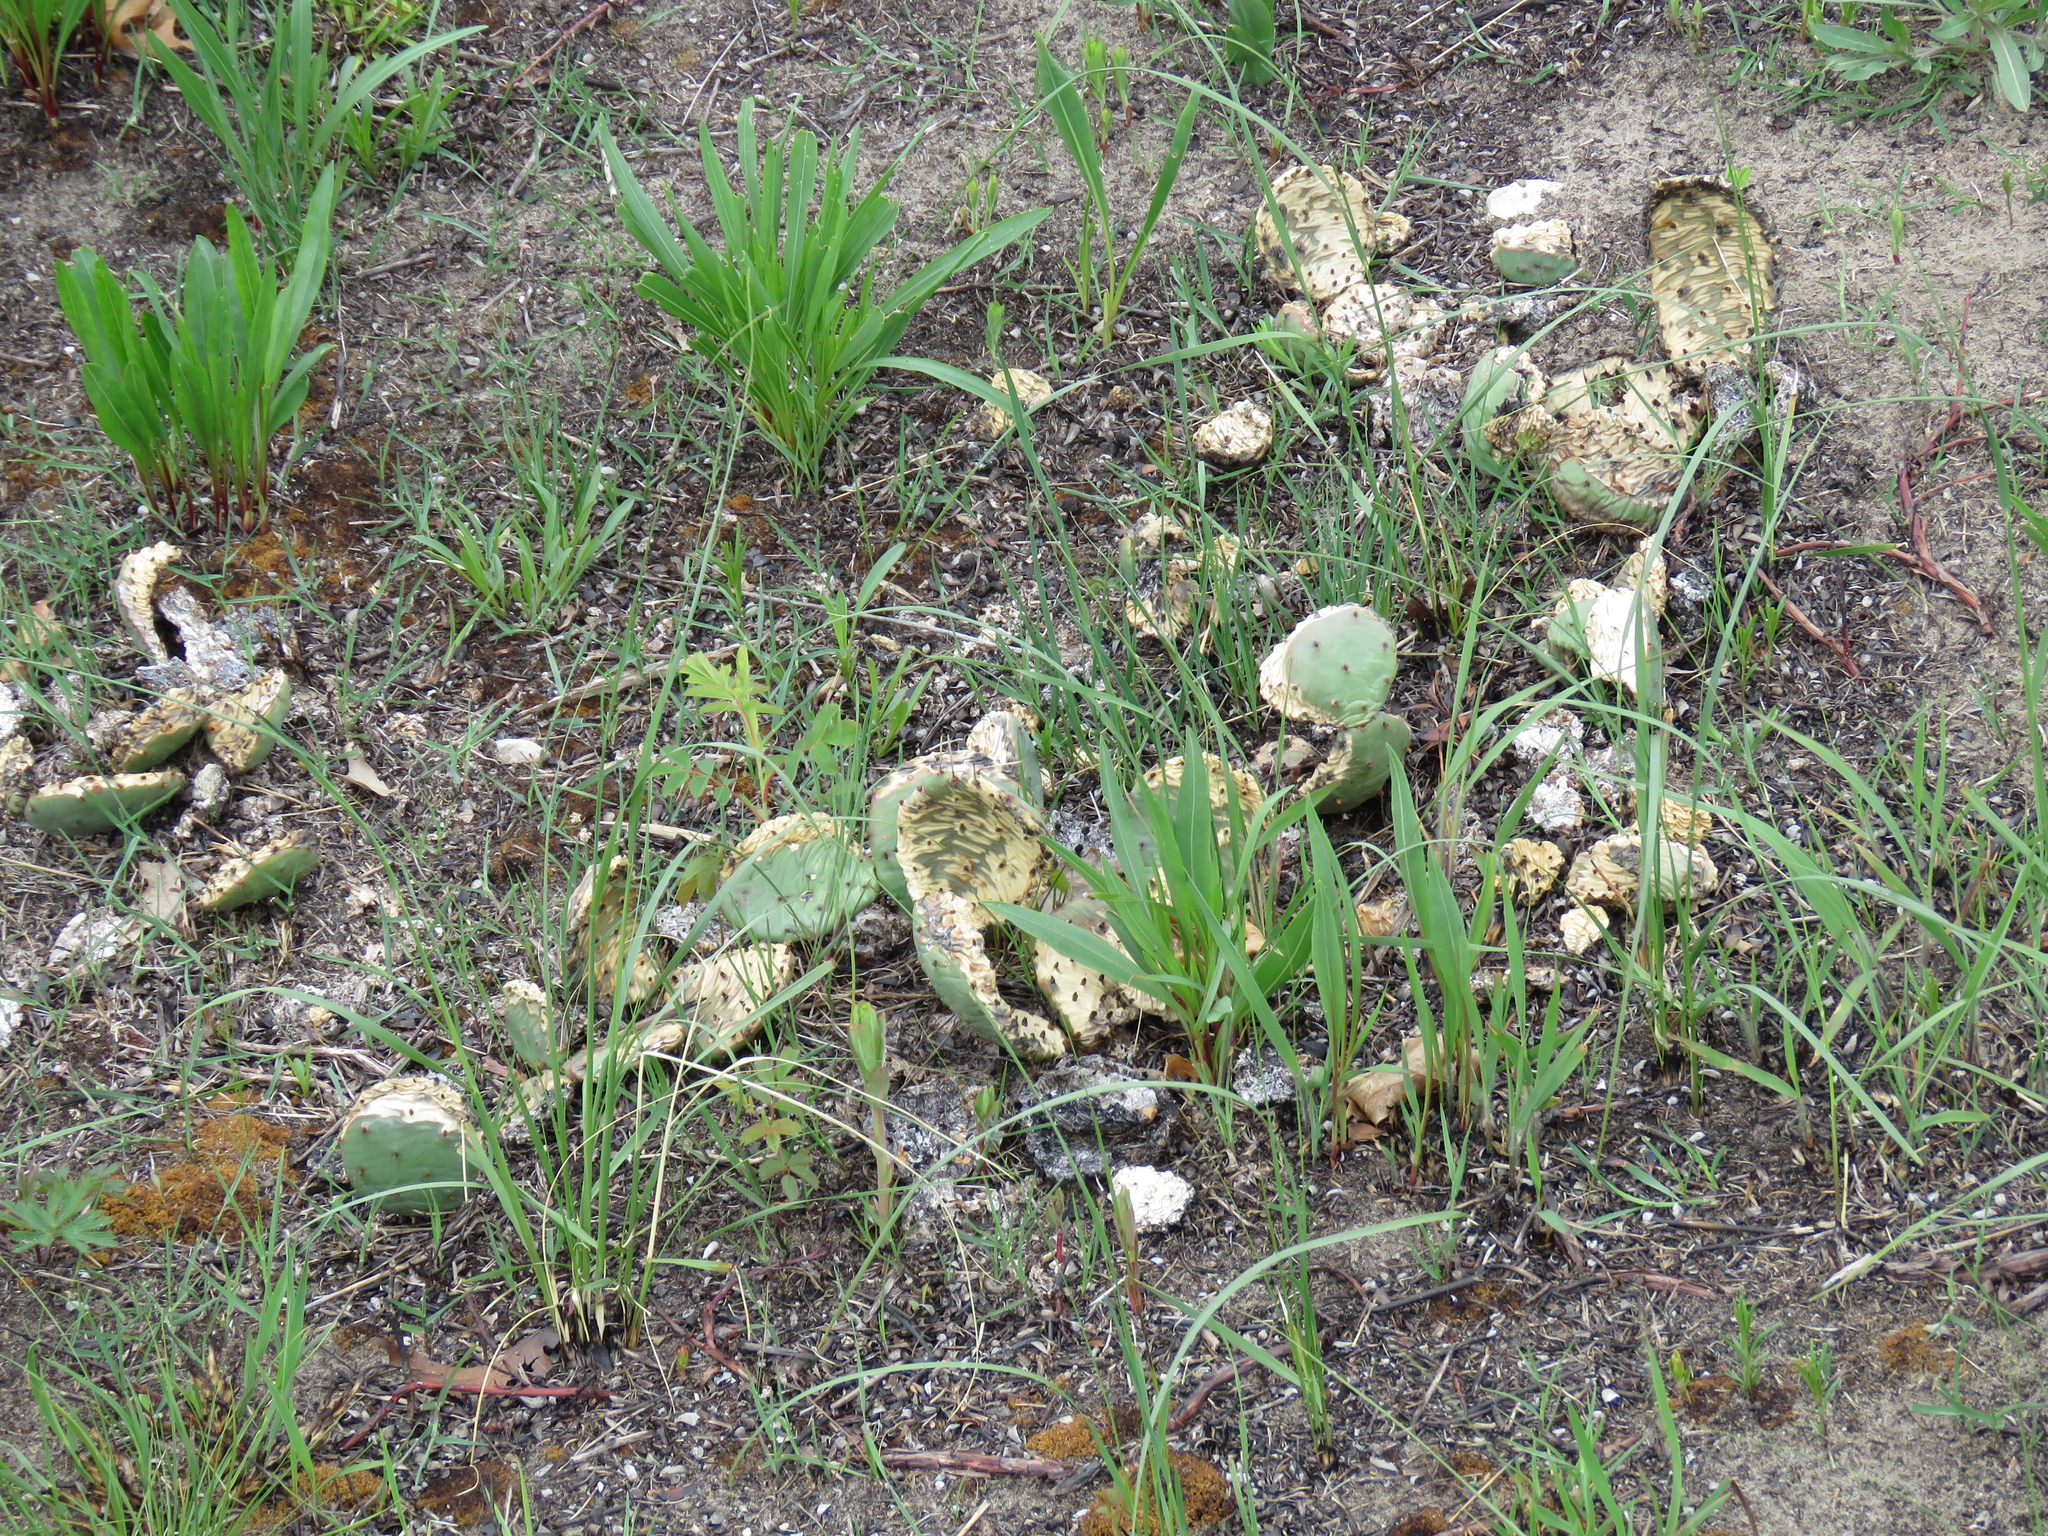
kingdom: Plantae
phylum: Tracheophyta
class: Magnoliopsida
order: Caryophyllales
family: Cactaceae
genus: Opuntia
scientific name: Opuntia humifusa
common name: Eastern prickly-pear
